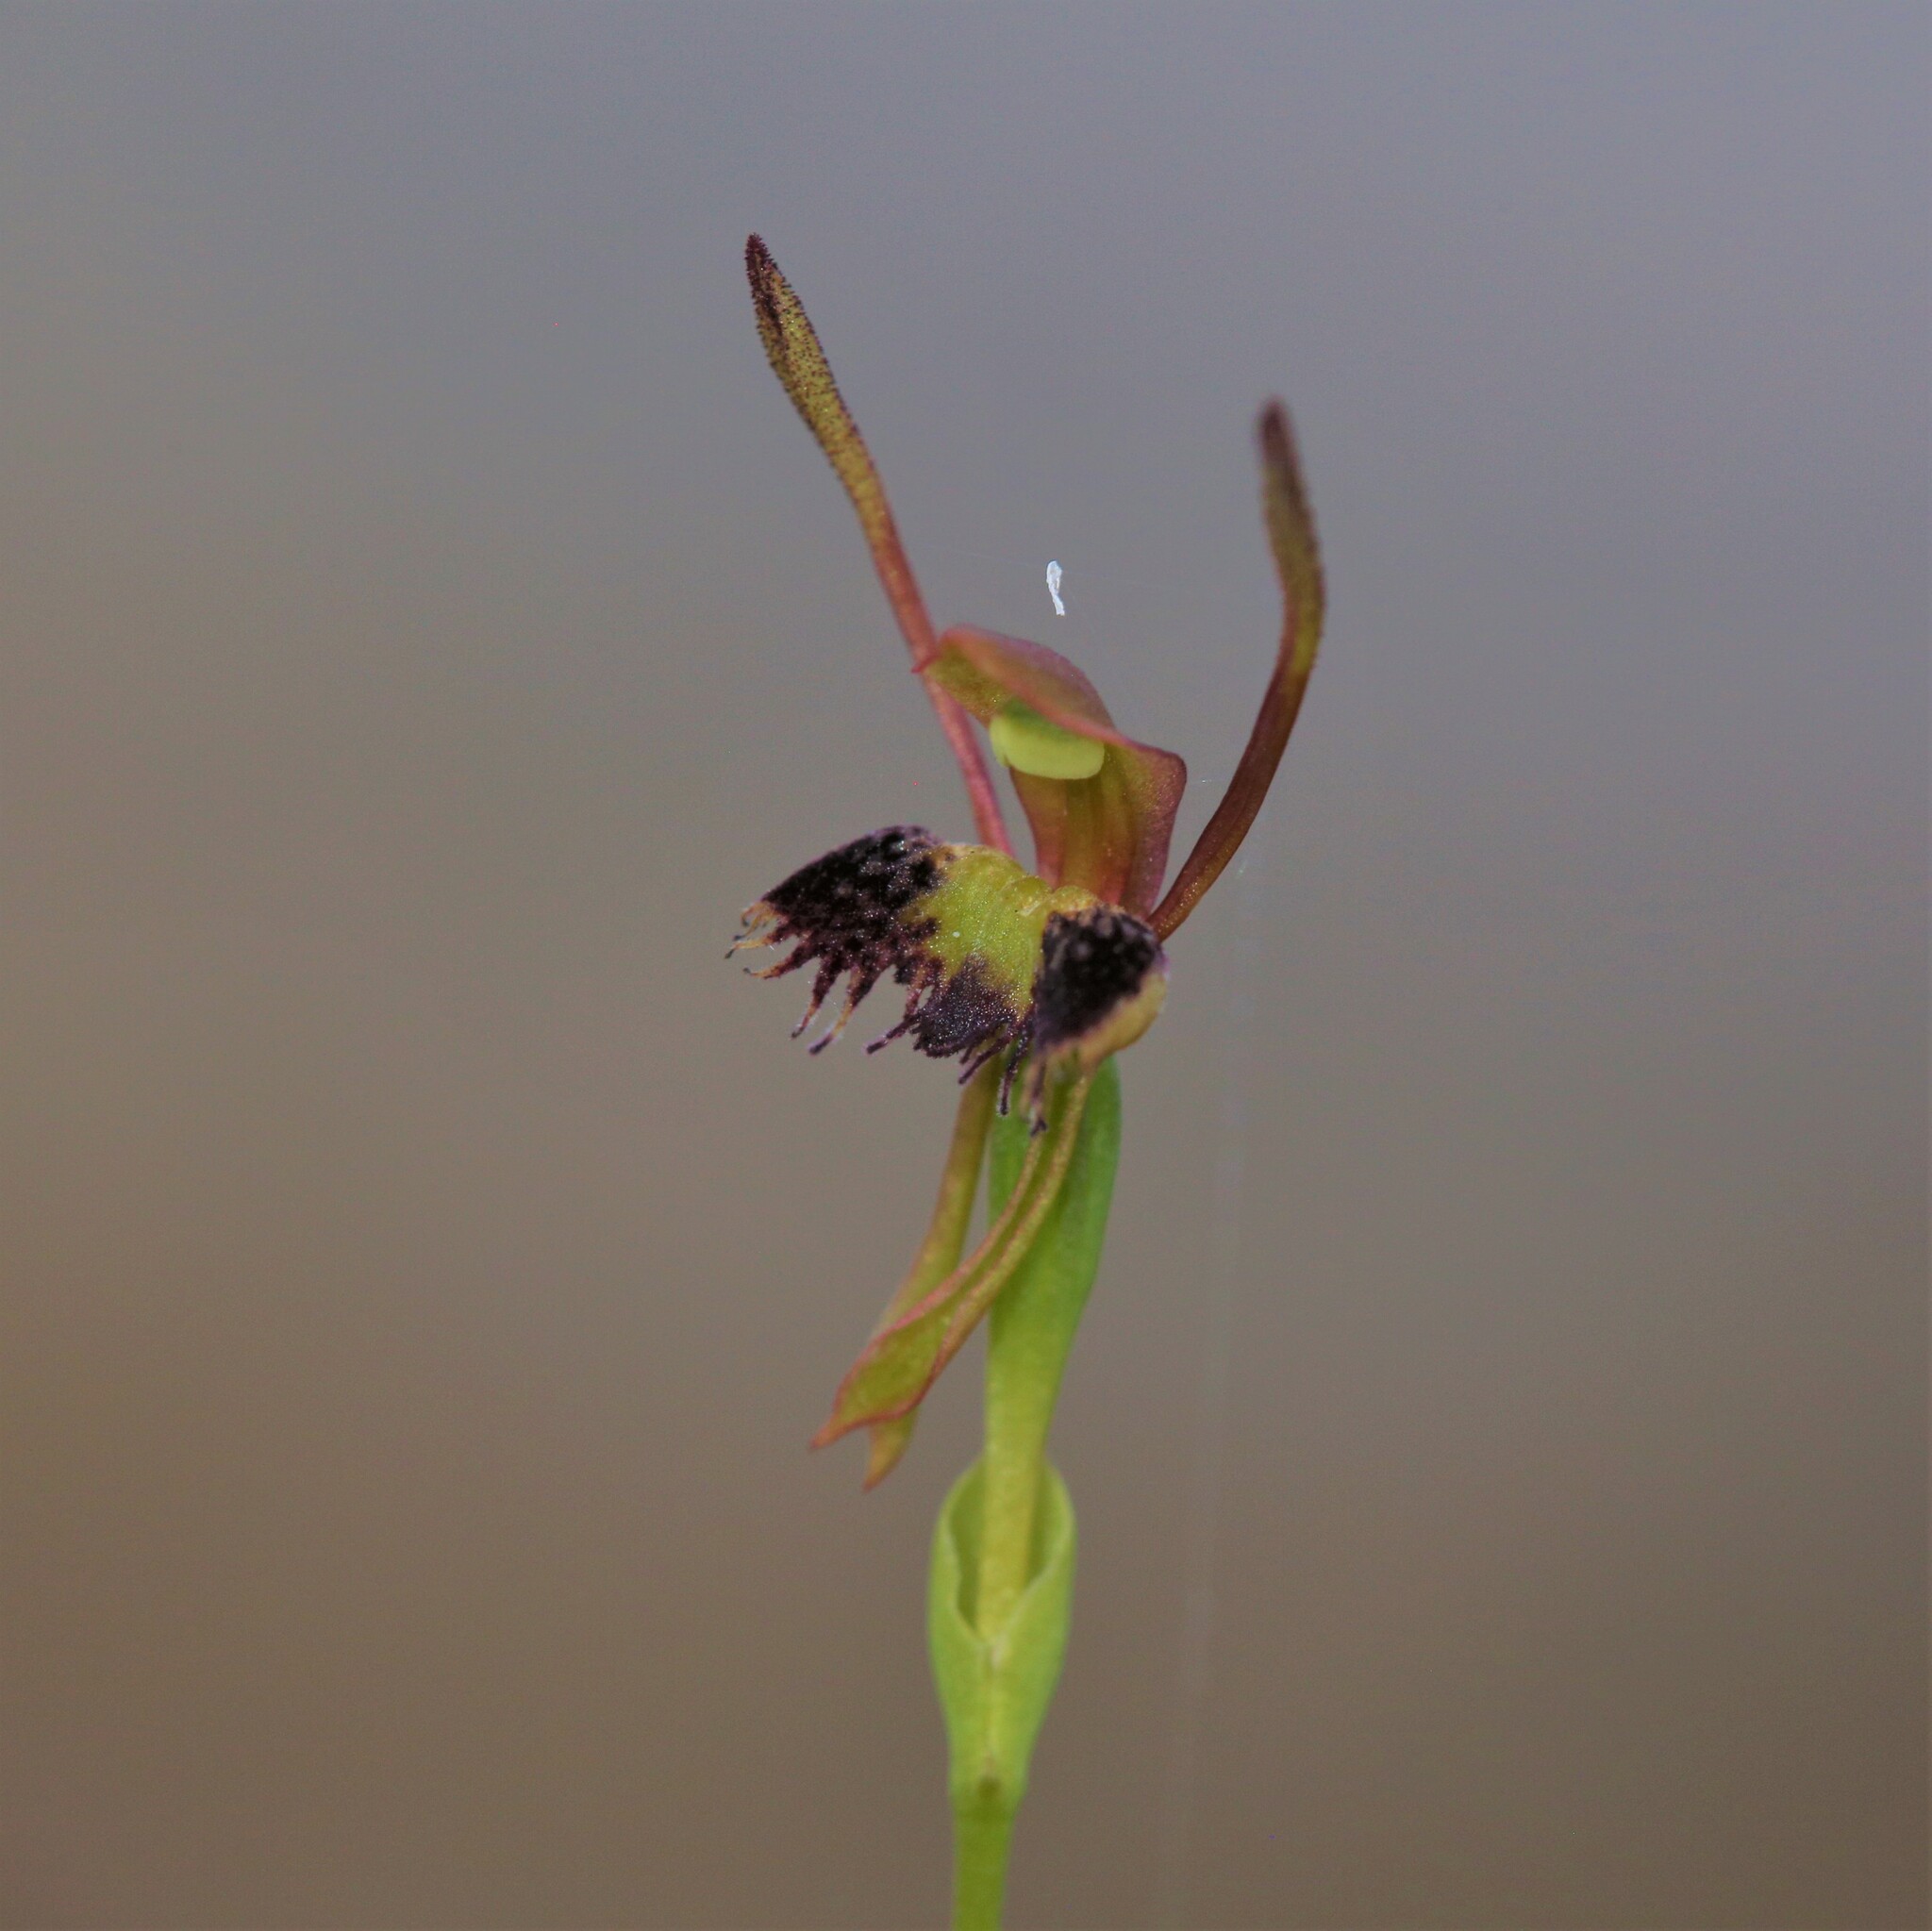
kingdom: Plantae
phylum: Tracheophyta
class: Liliopsida
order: Asparagales
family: Orchidaceae
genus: Leporella
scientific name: Leporella fimbriata
